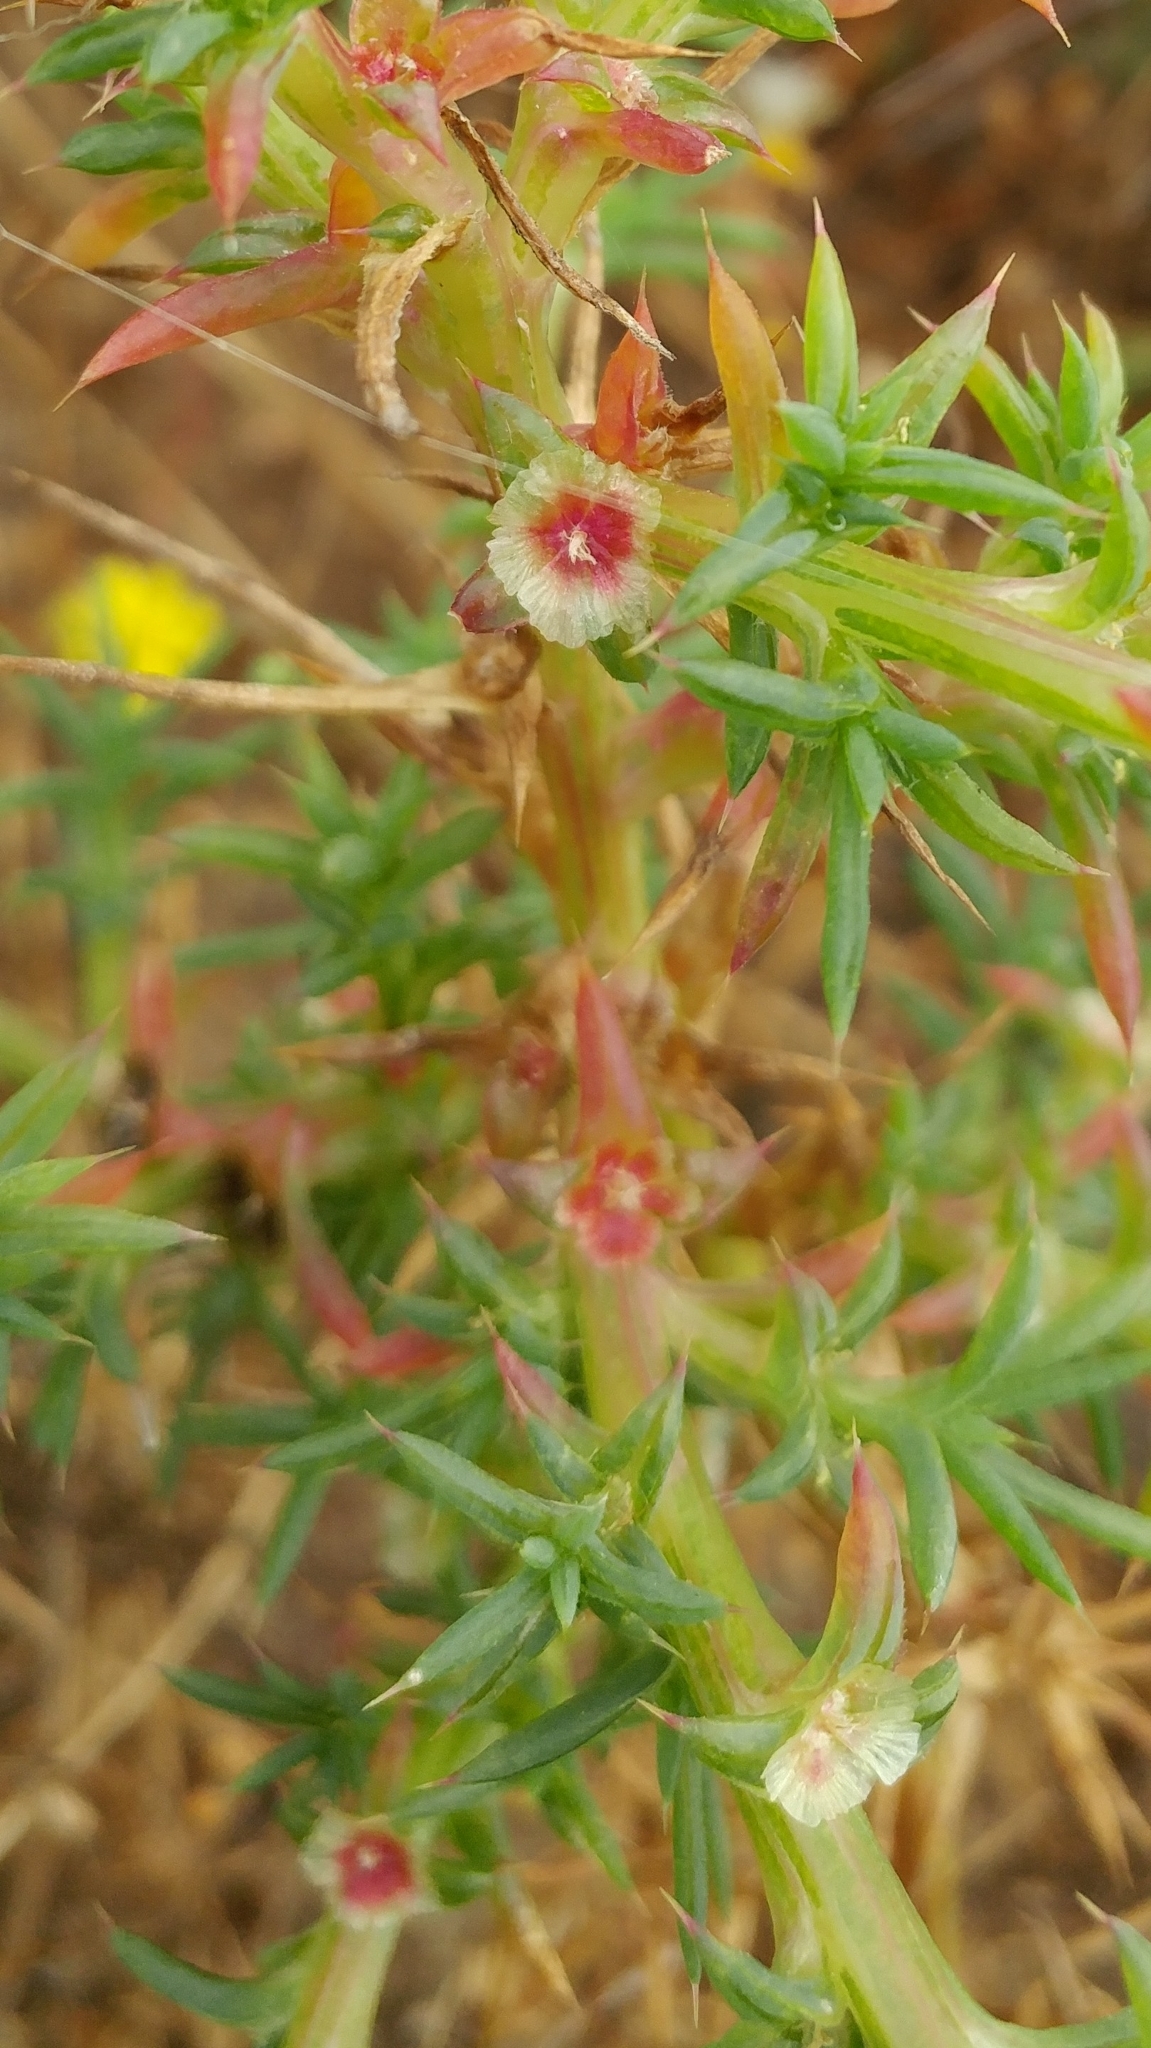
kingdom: Plantae
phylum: Tracheophyta
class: Magnoliopsida
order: Caryophyllales
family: Amaranthaceae
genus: Salsola
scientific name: Salsola australis
